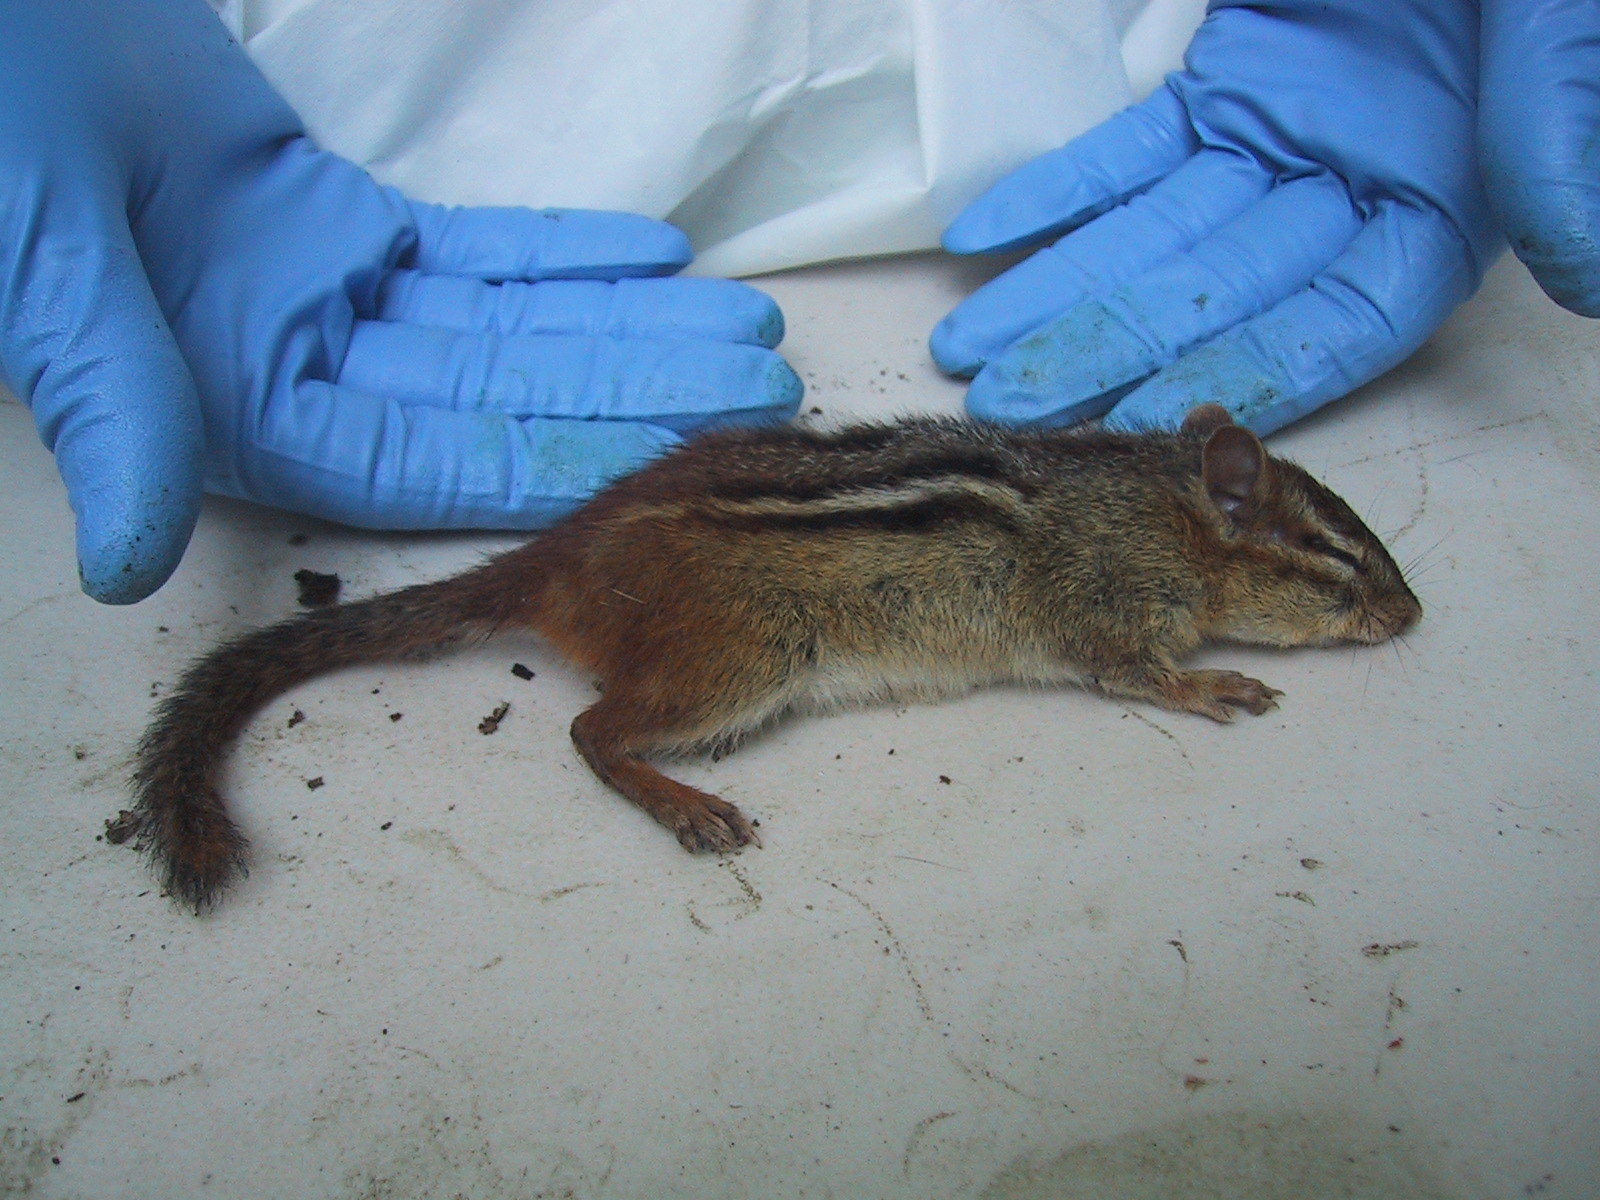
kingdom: Animalia
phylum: Chordata
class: Mammalia
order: Rodentia
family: Sciuridae
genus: Tamias
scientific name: Tamias striatus
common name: Eastern chipmunk
